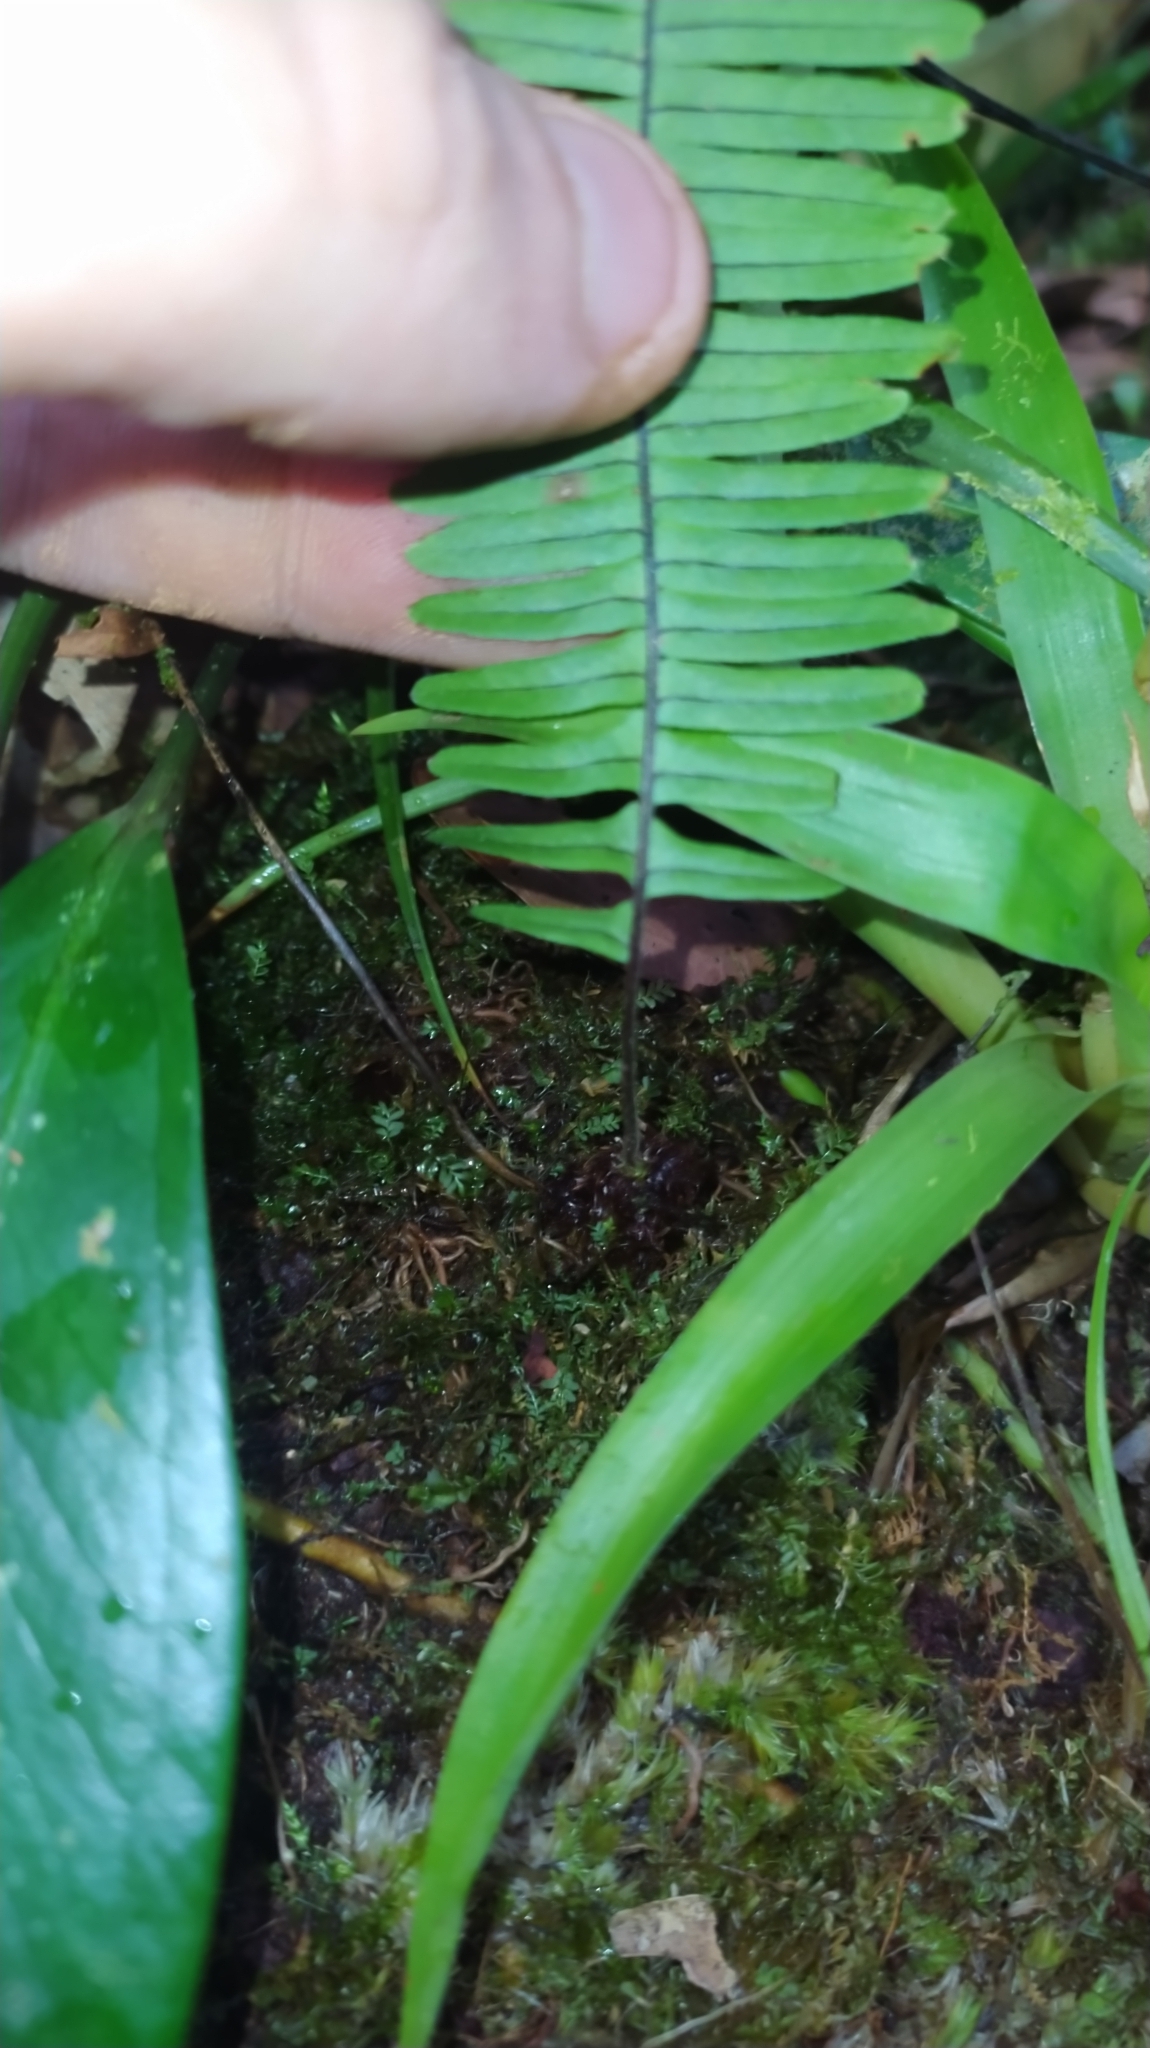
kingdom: Plantae
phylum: Tracheophyta
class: Polypodiopsida
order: Polypodiales
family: Polypodiaceae
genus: Pecluma
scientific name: Pecluma pectinata
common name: Msasa fern
